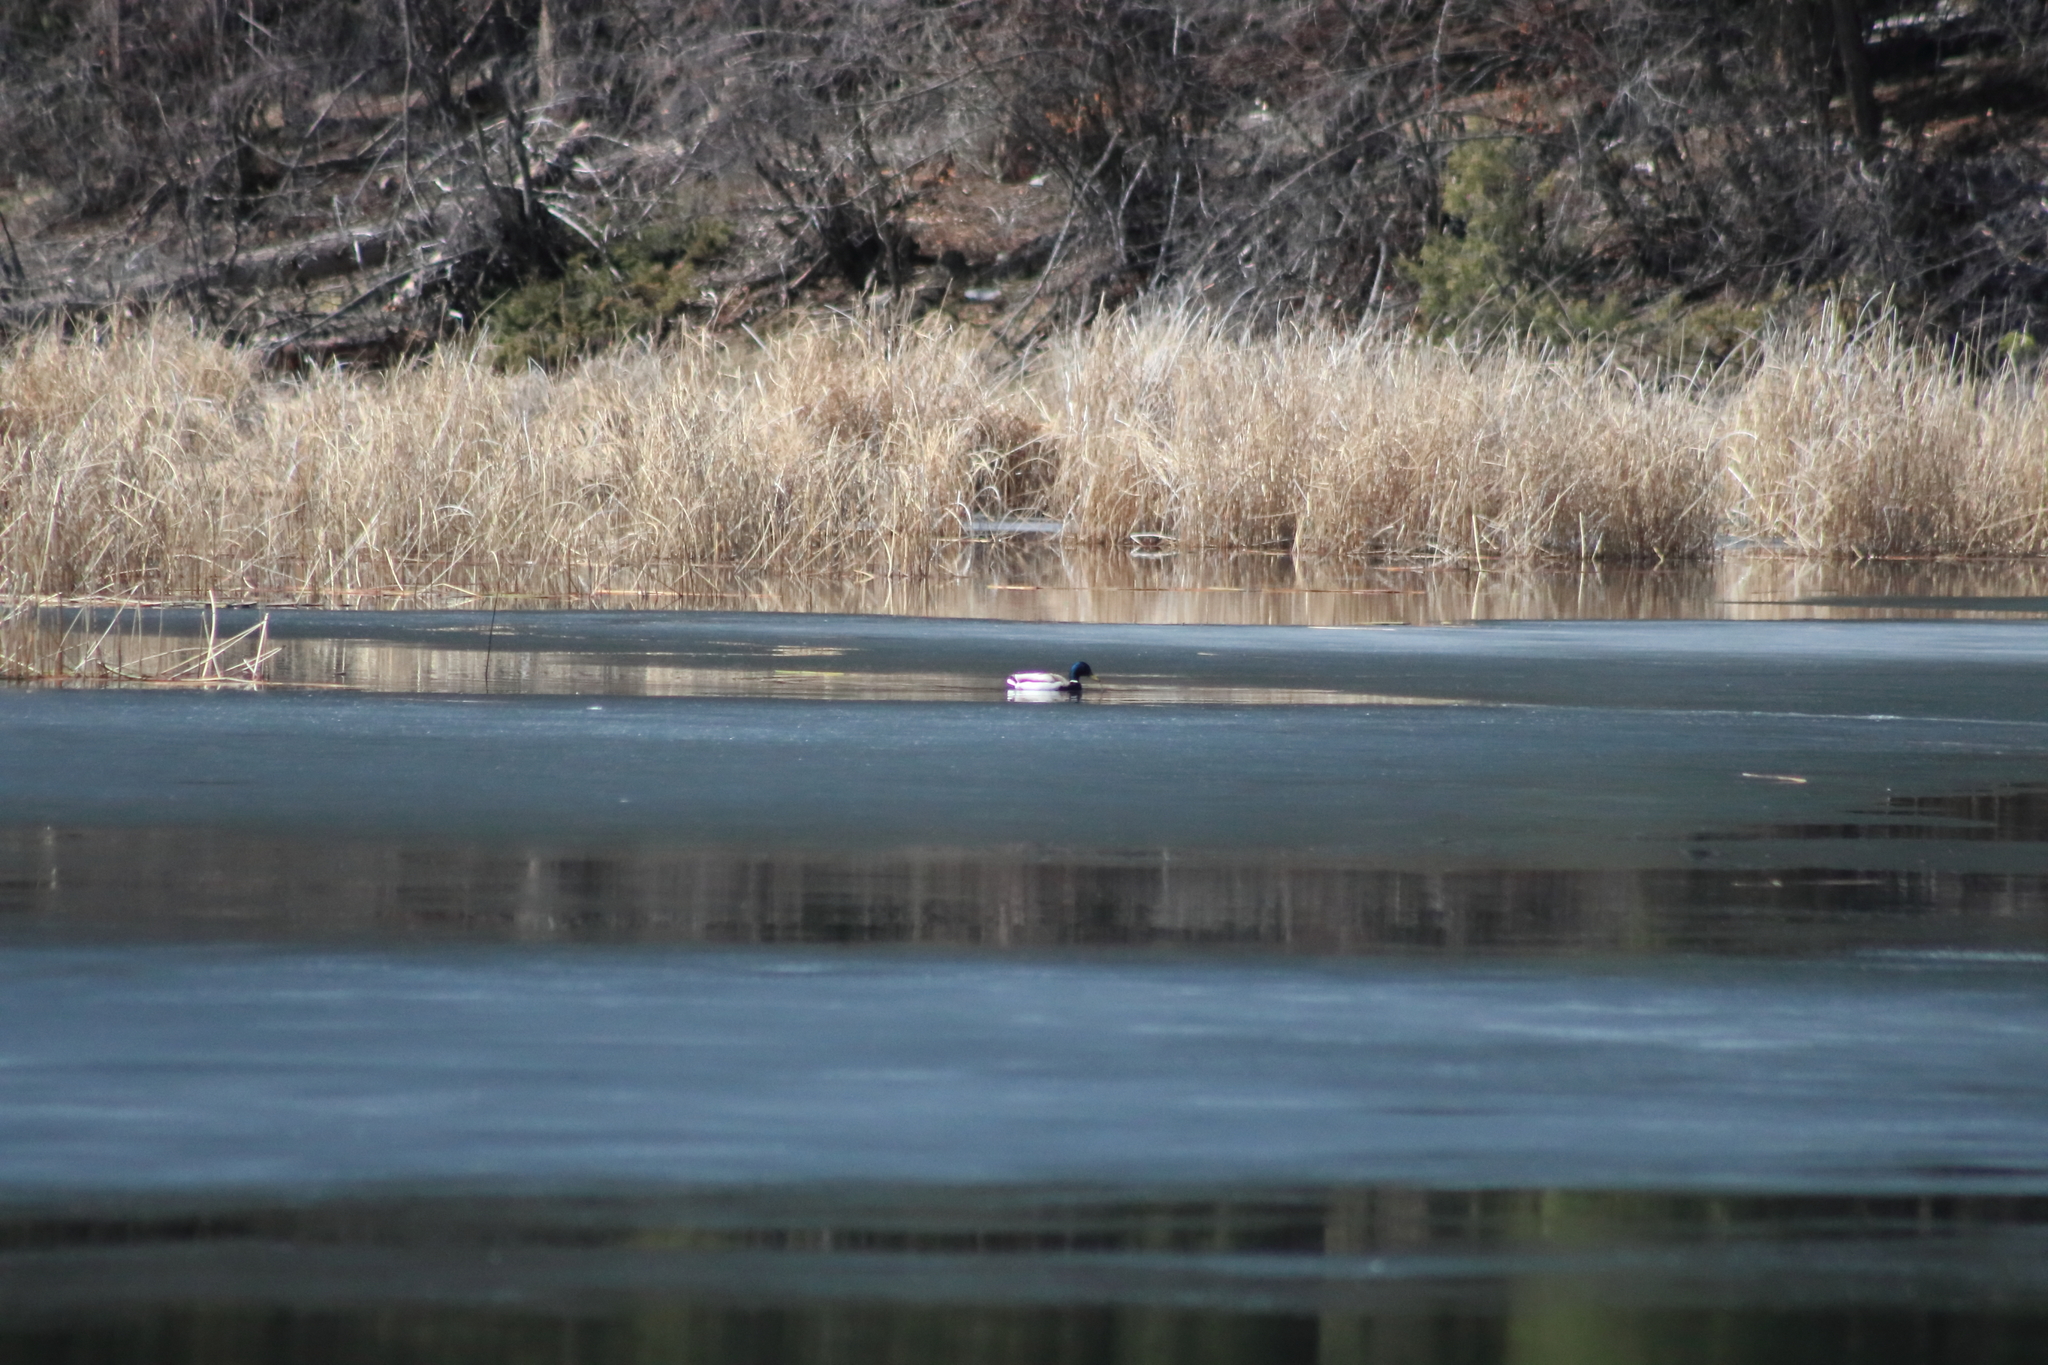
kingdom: Animalia
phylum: Chordata
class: Aves
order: Anseriformes
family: Anatidae
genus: Anas
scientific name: Anas platyrhynchos
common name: Mallard
